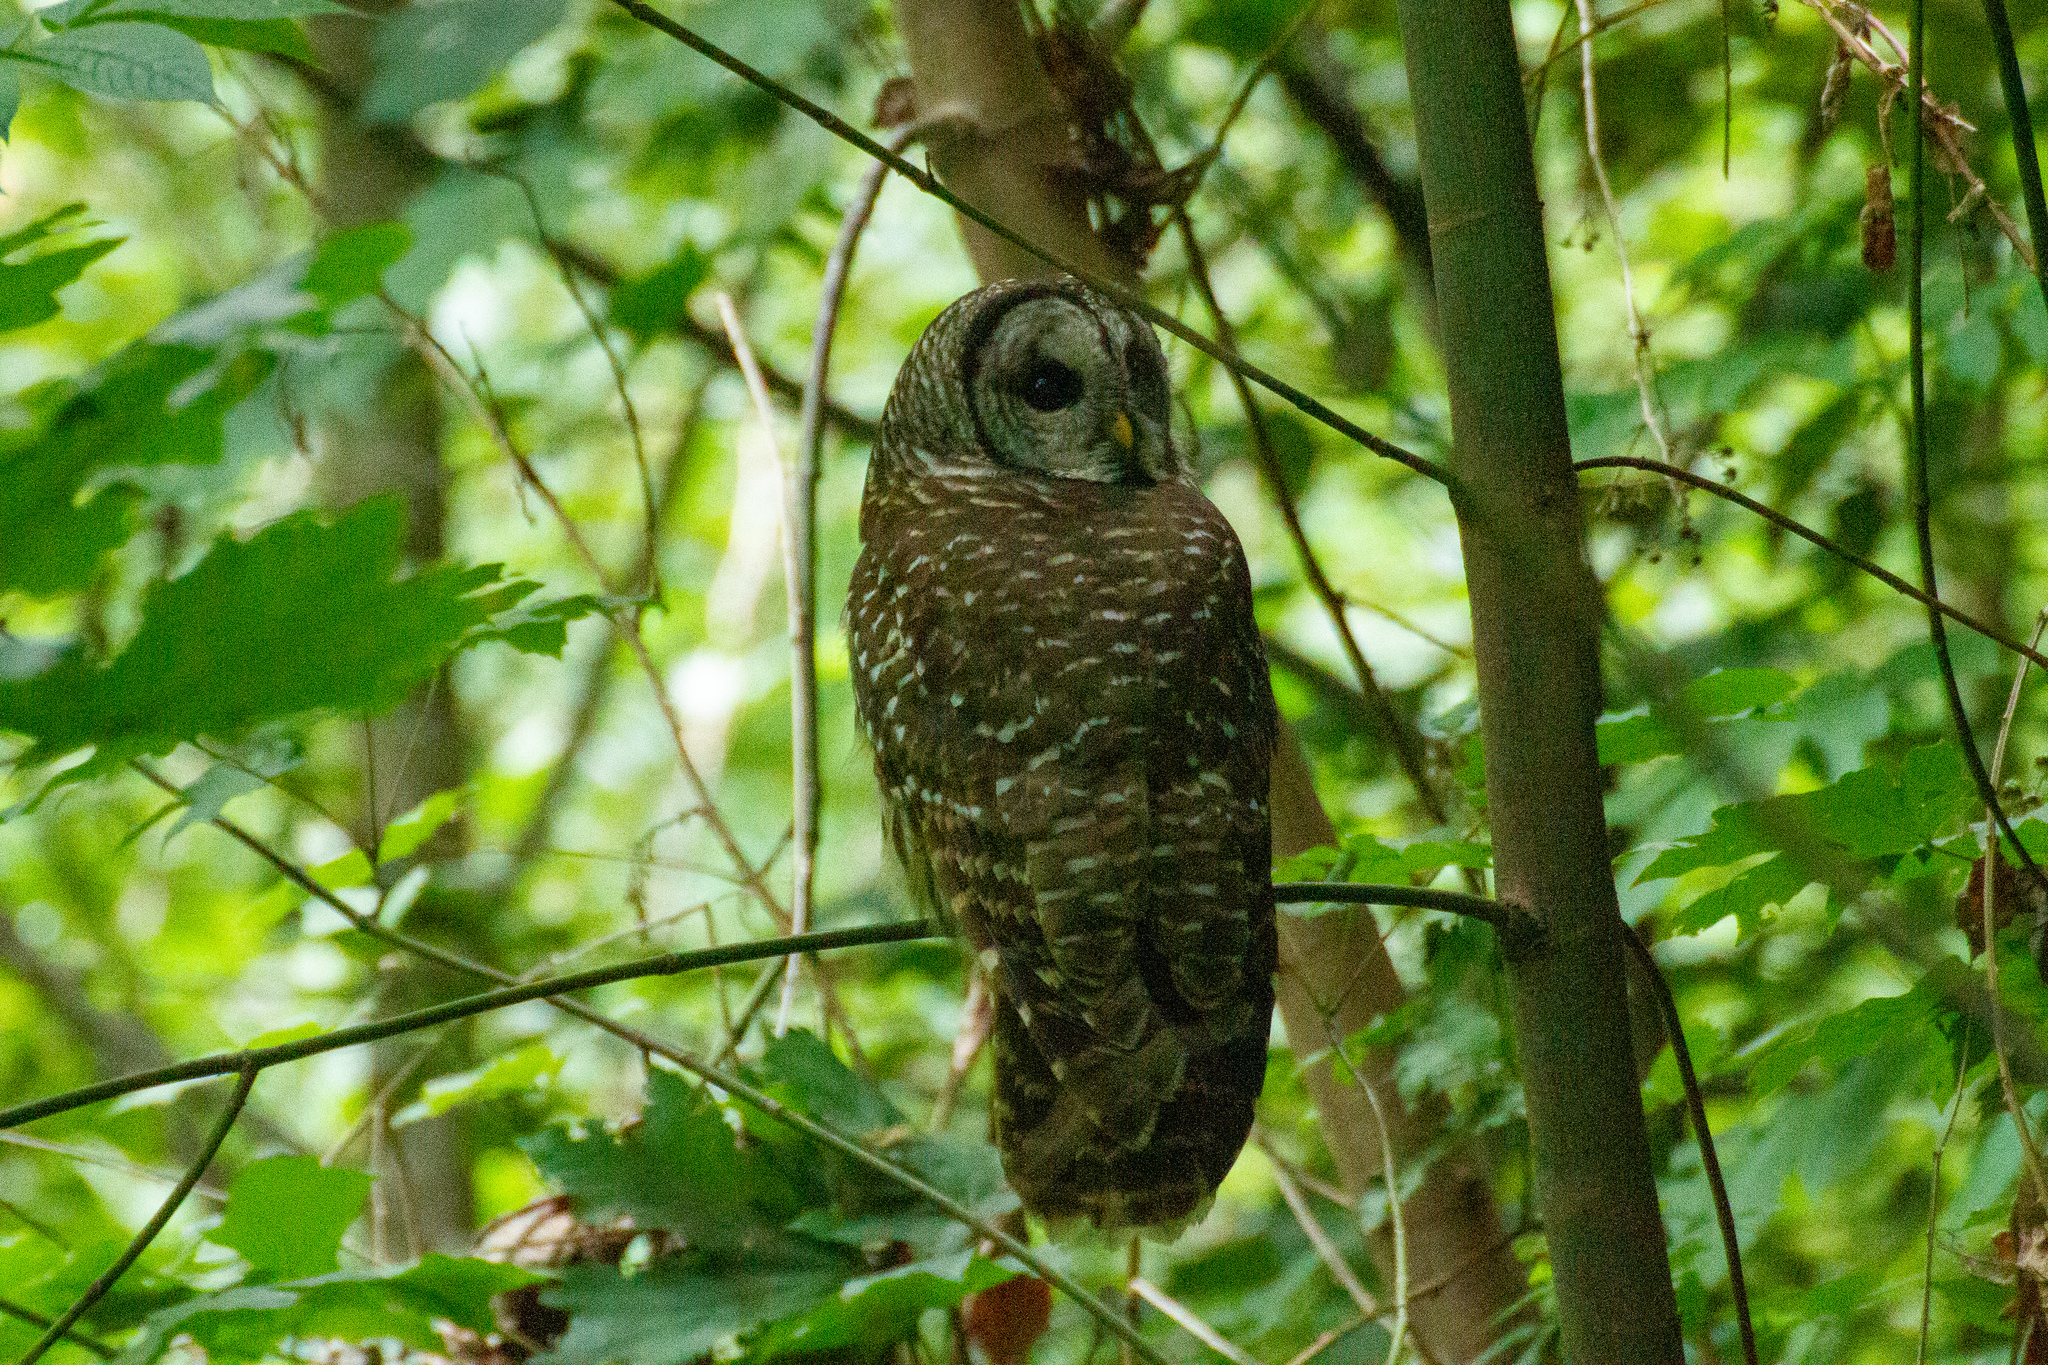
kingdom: Animalia
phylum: Chordata
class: Aves
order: Strigiformes
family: Strigidae
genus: Strix
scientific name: Strix varia
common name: Barred owl
